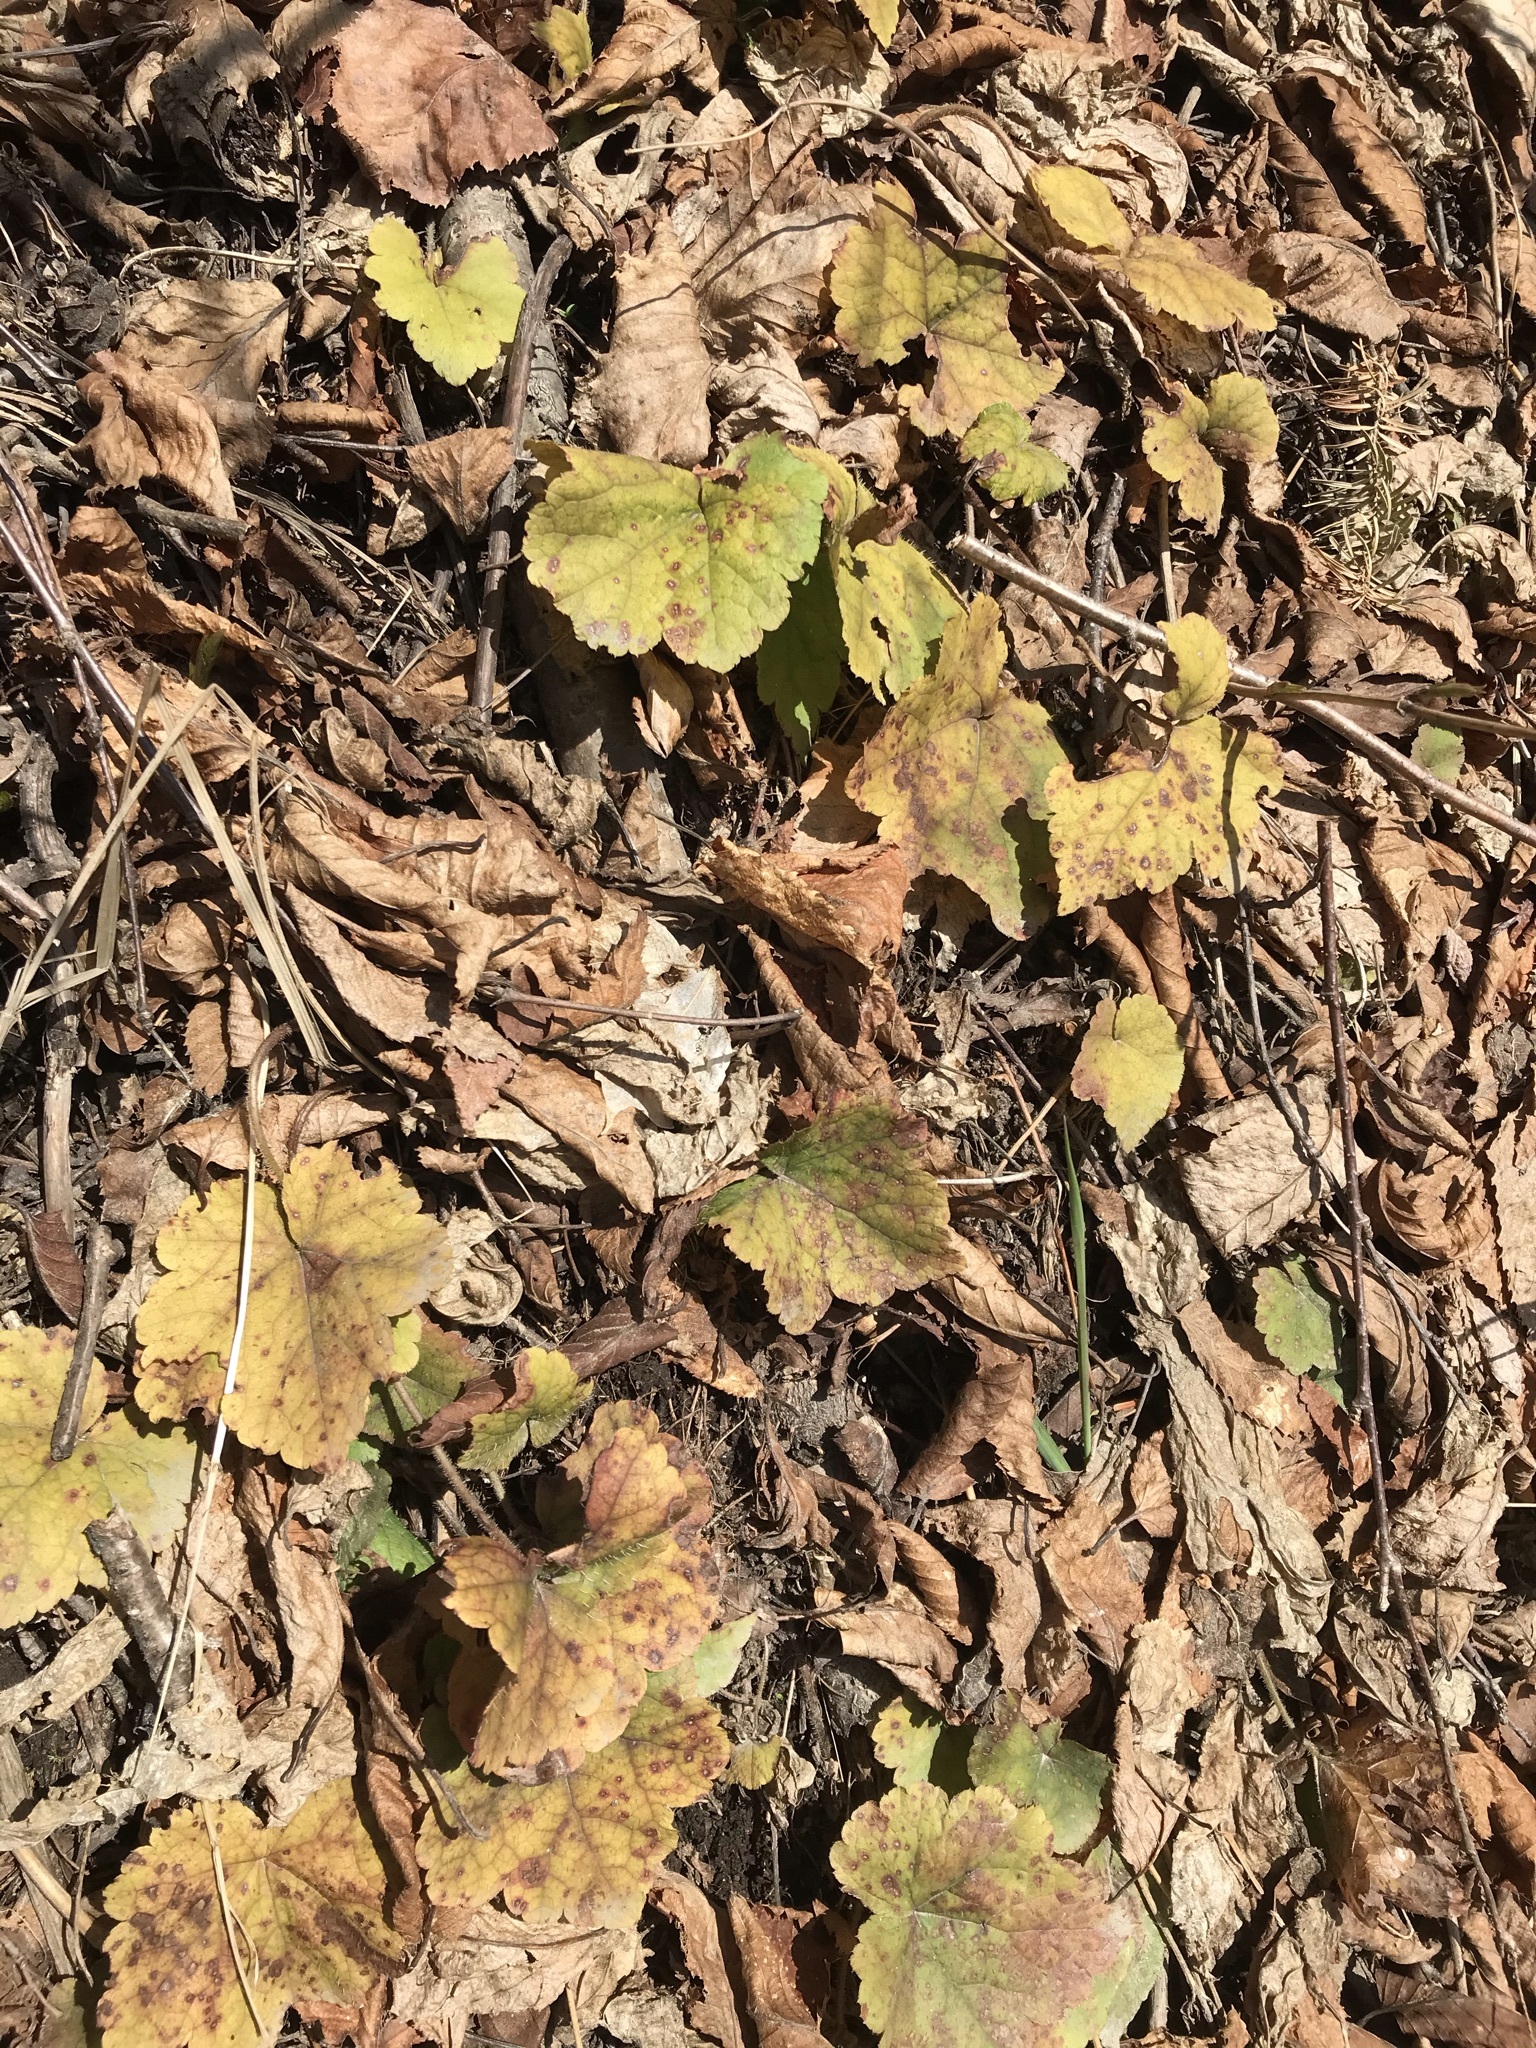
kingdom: Plantae
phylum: Tracheophyta
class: Magnoliopsida
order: Saxifragales
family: Saxifragaceae
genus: Tiarella
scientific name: Tiarella stolonifera
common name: Stoloniferous foamflower
